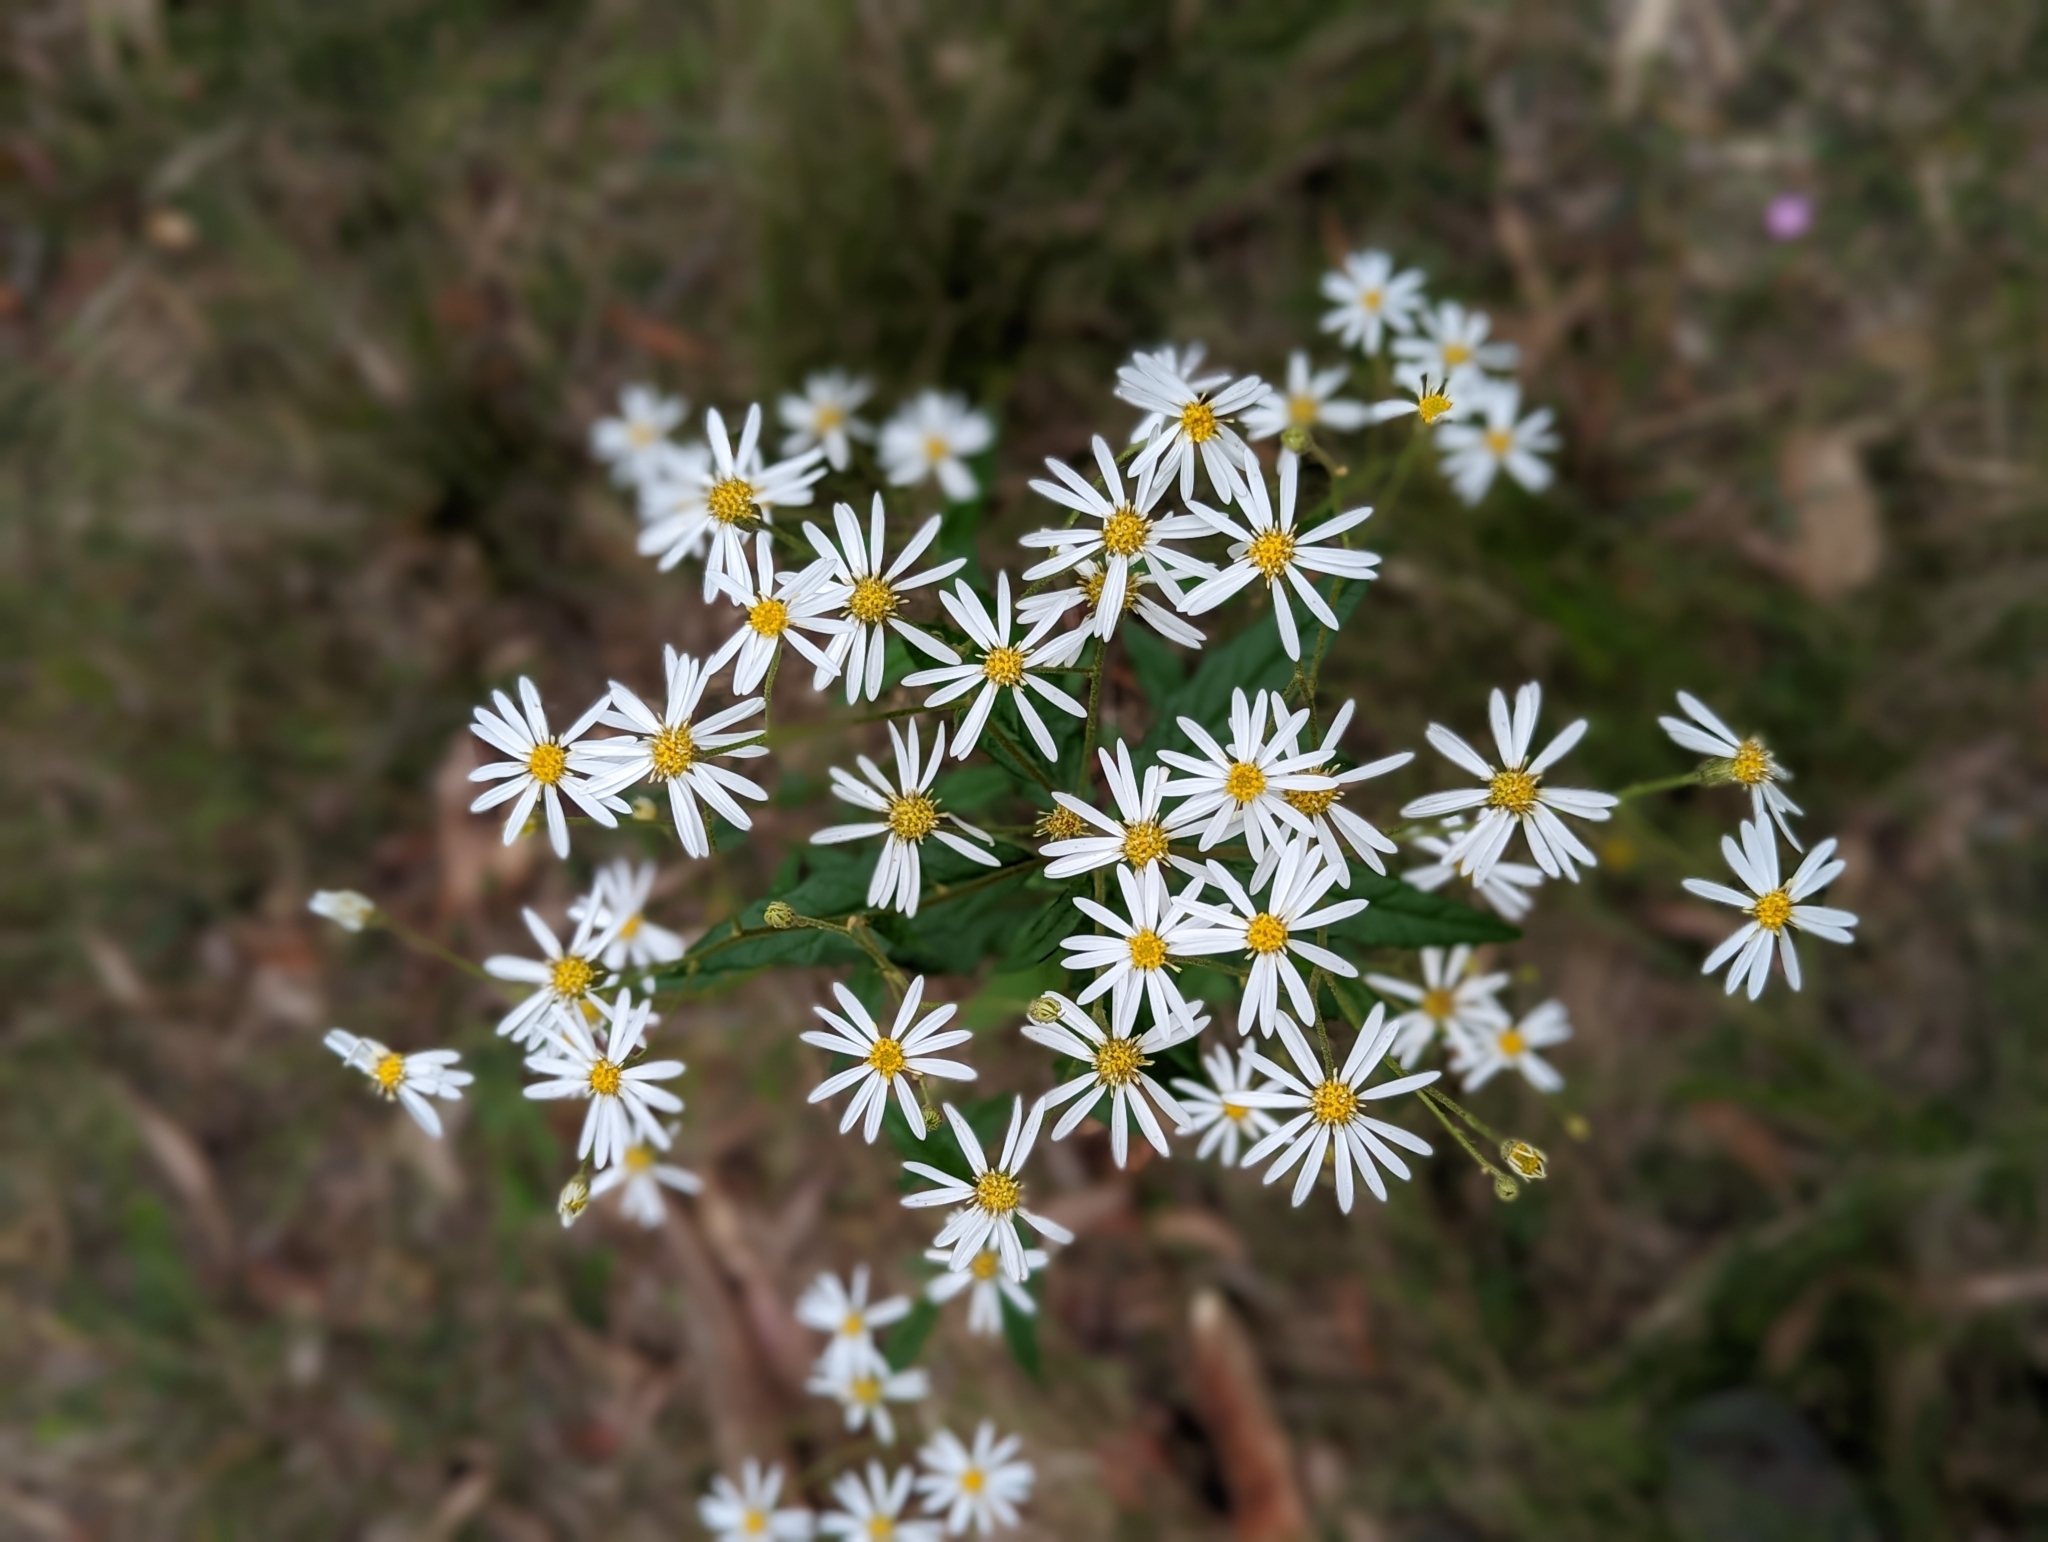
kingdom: Plantae
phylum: Tracheophyta
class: Magnoliopsida
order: Asterales
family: Asteraceae
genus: Olearia
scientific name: Olearia nernstii
